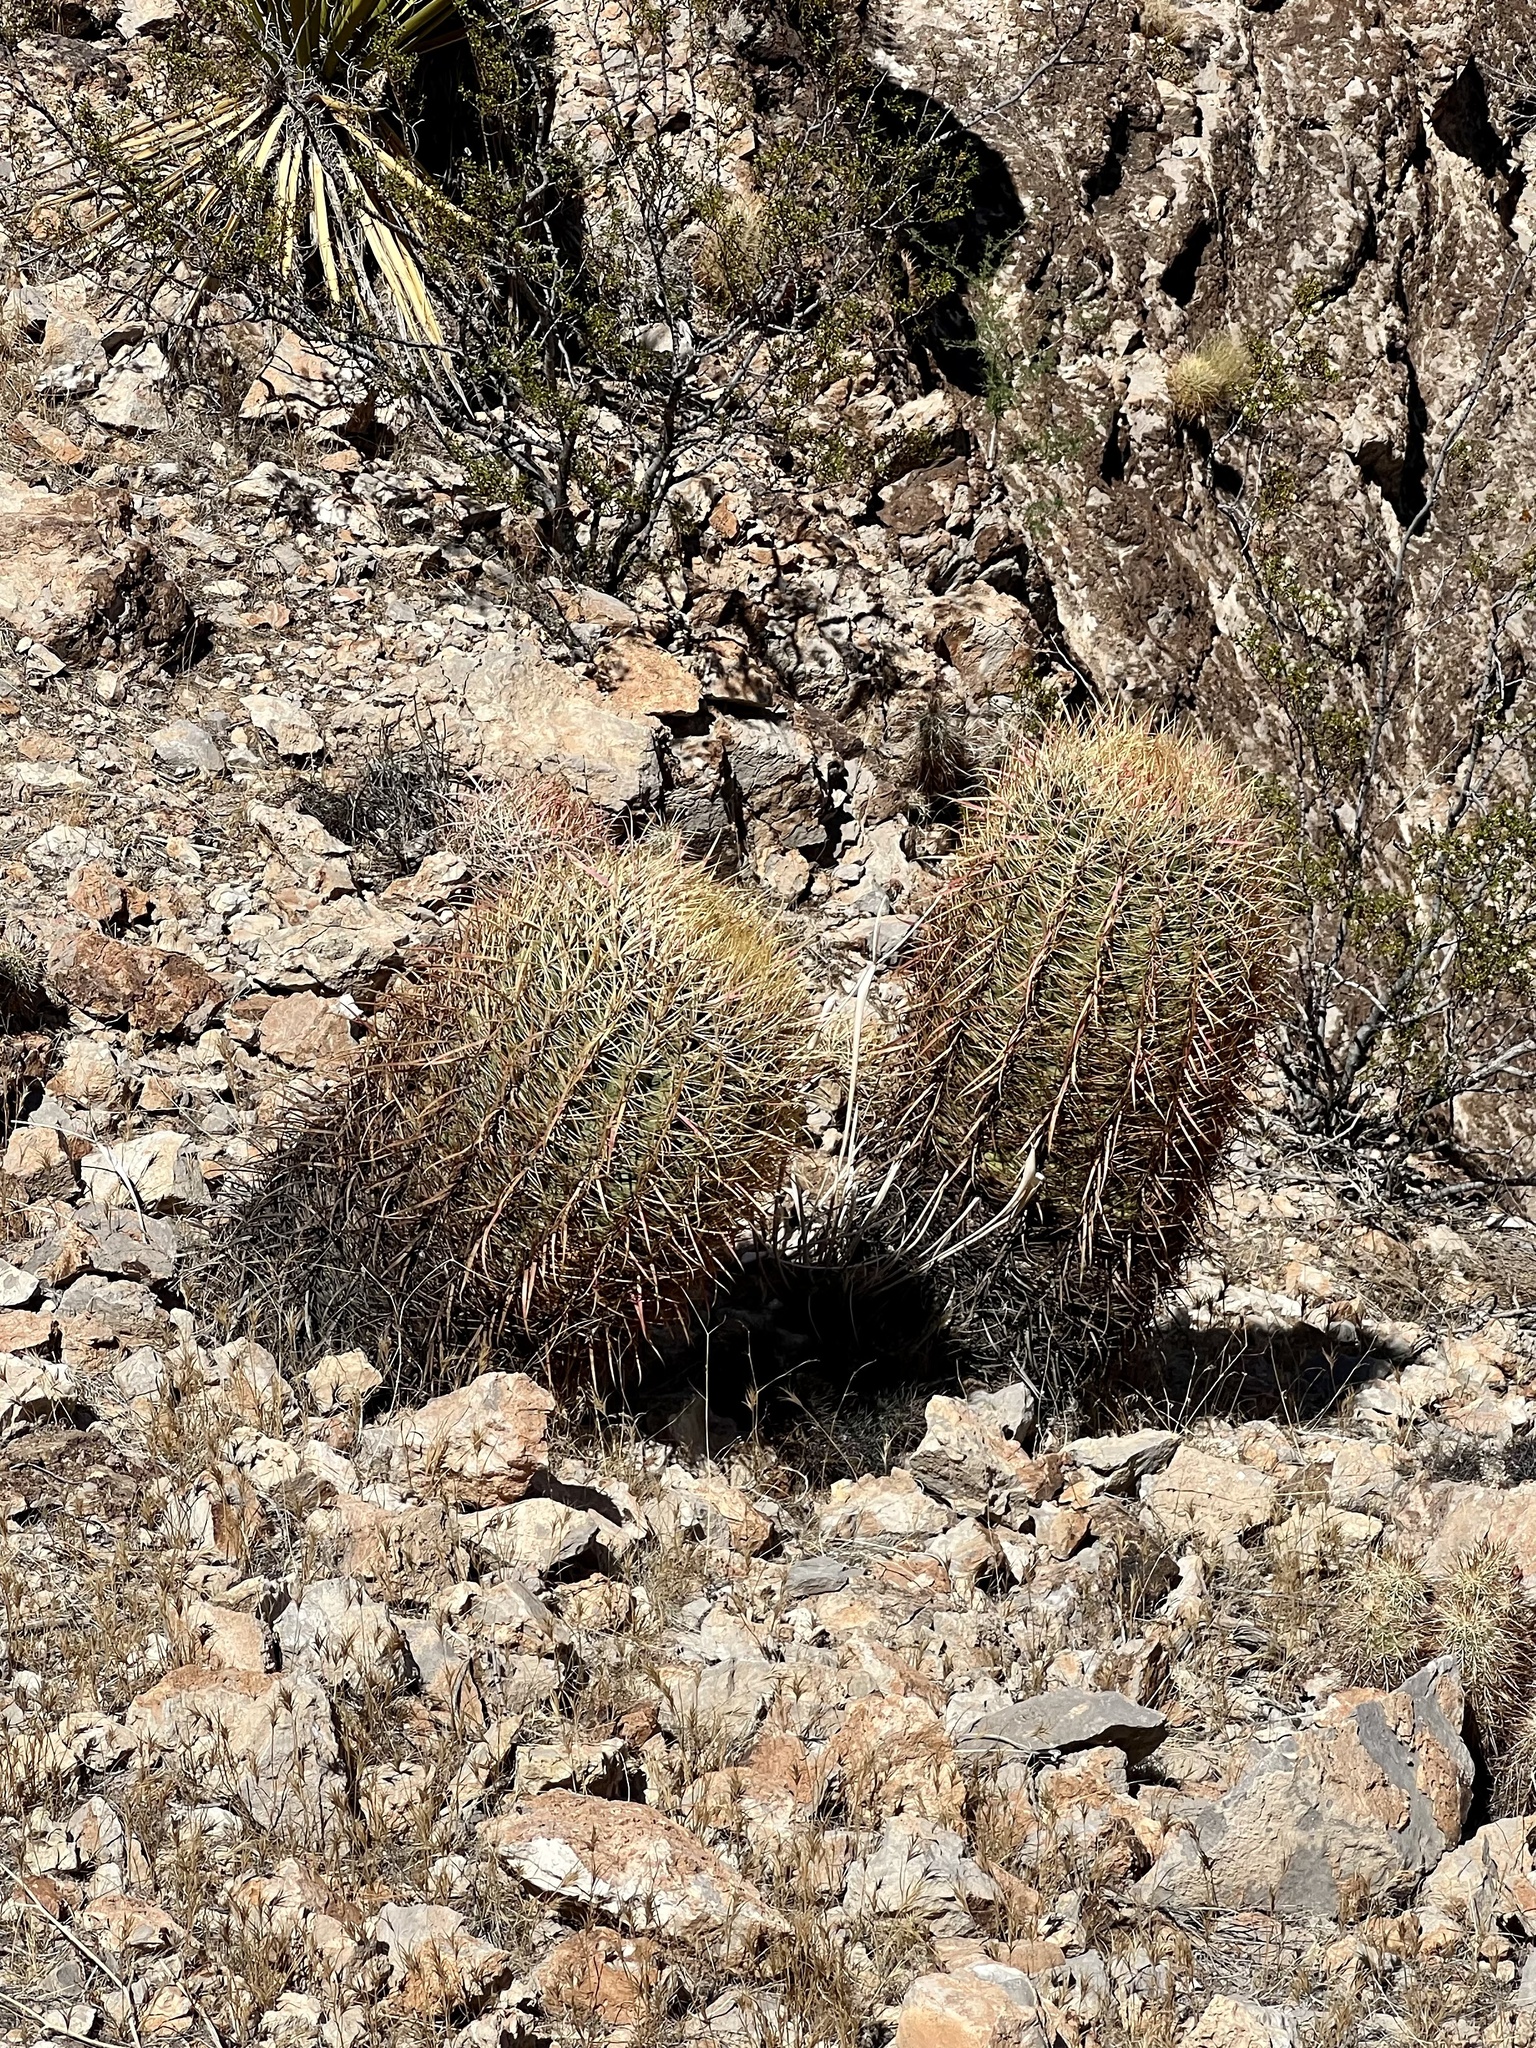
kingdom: Plantae
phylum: Tracheophyta
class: Magnoliopsida
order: Caryophyllales
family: Cactaceae
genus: Ferocactus
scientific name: Ferocactus cylindraceus
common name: California barrel cactus
